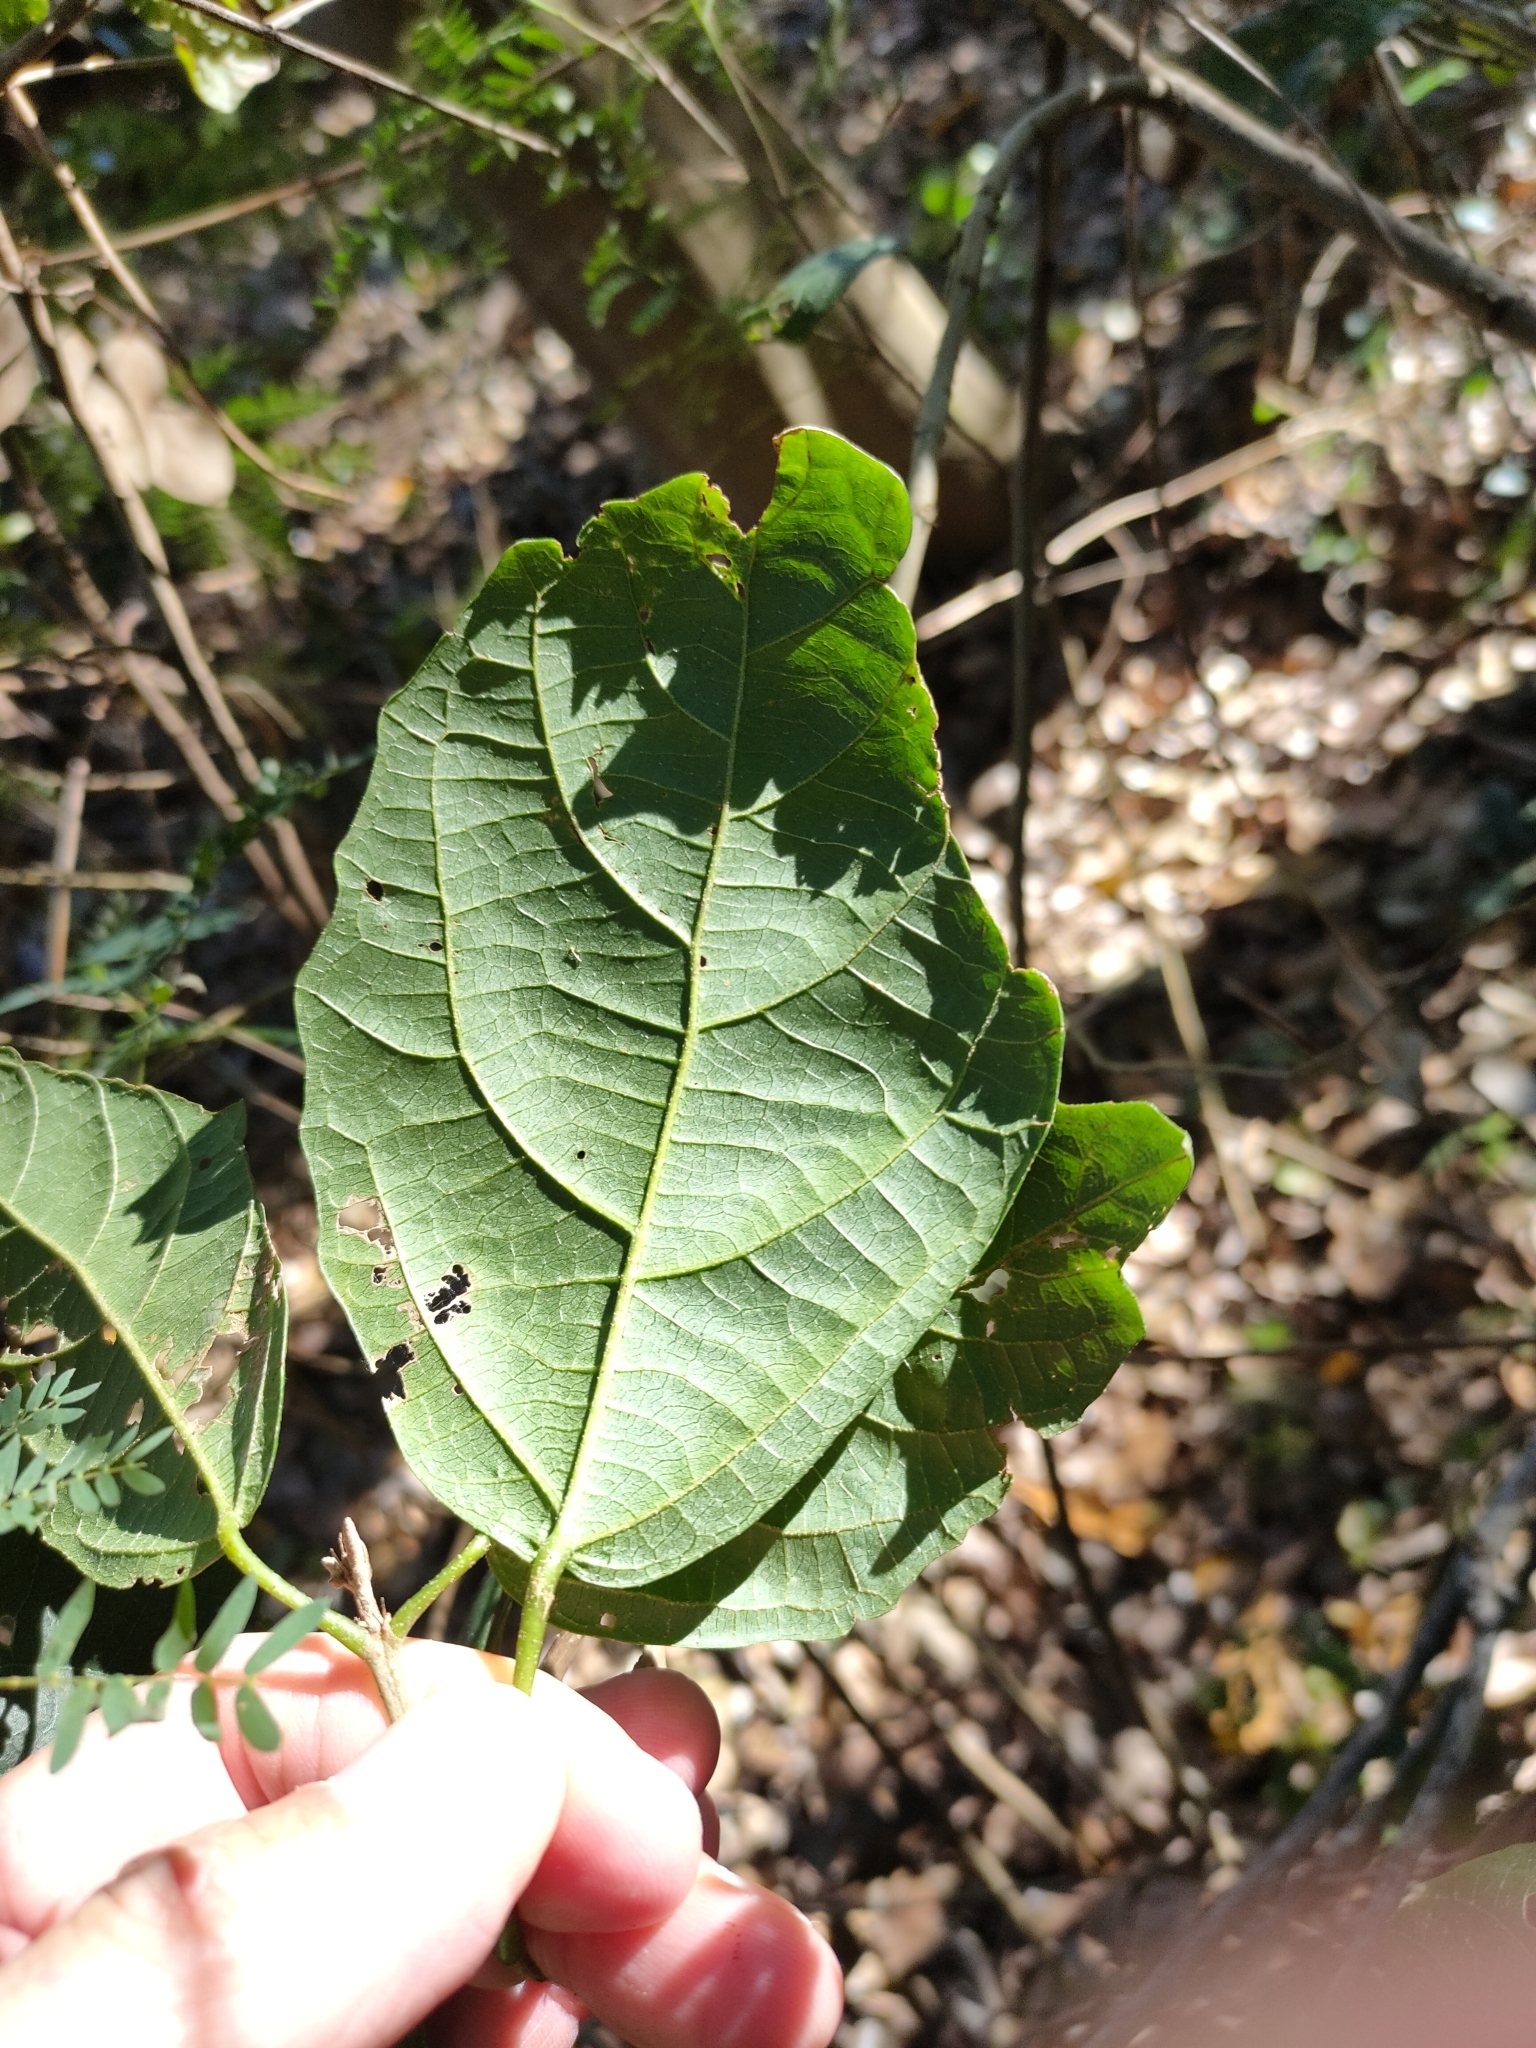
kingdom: Plantae
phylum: Tracheophyta
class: Magnoliopsida
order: Malpighiales
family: Euphorbiaceae
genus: Mallotus
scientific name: Mallotus claoxyloides
